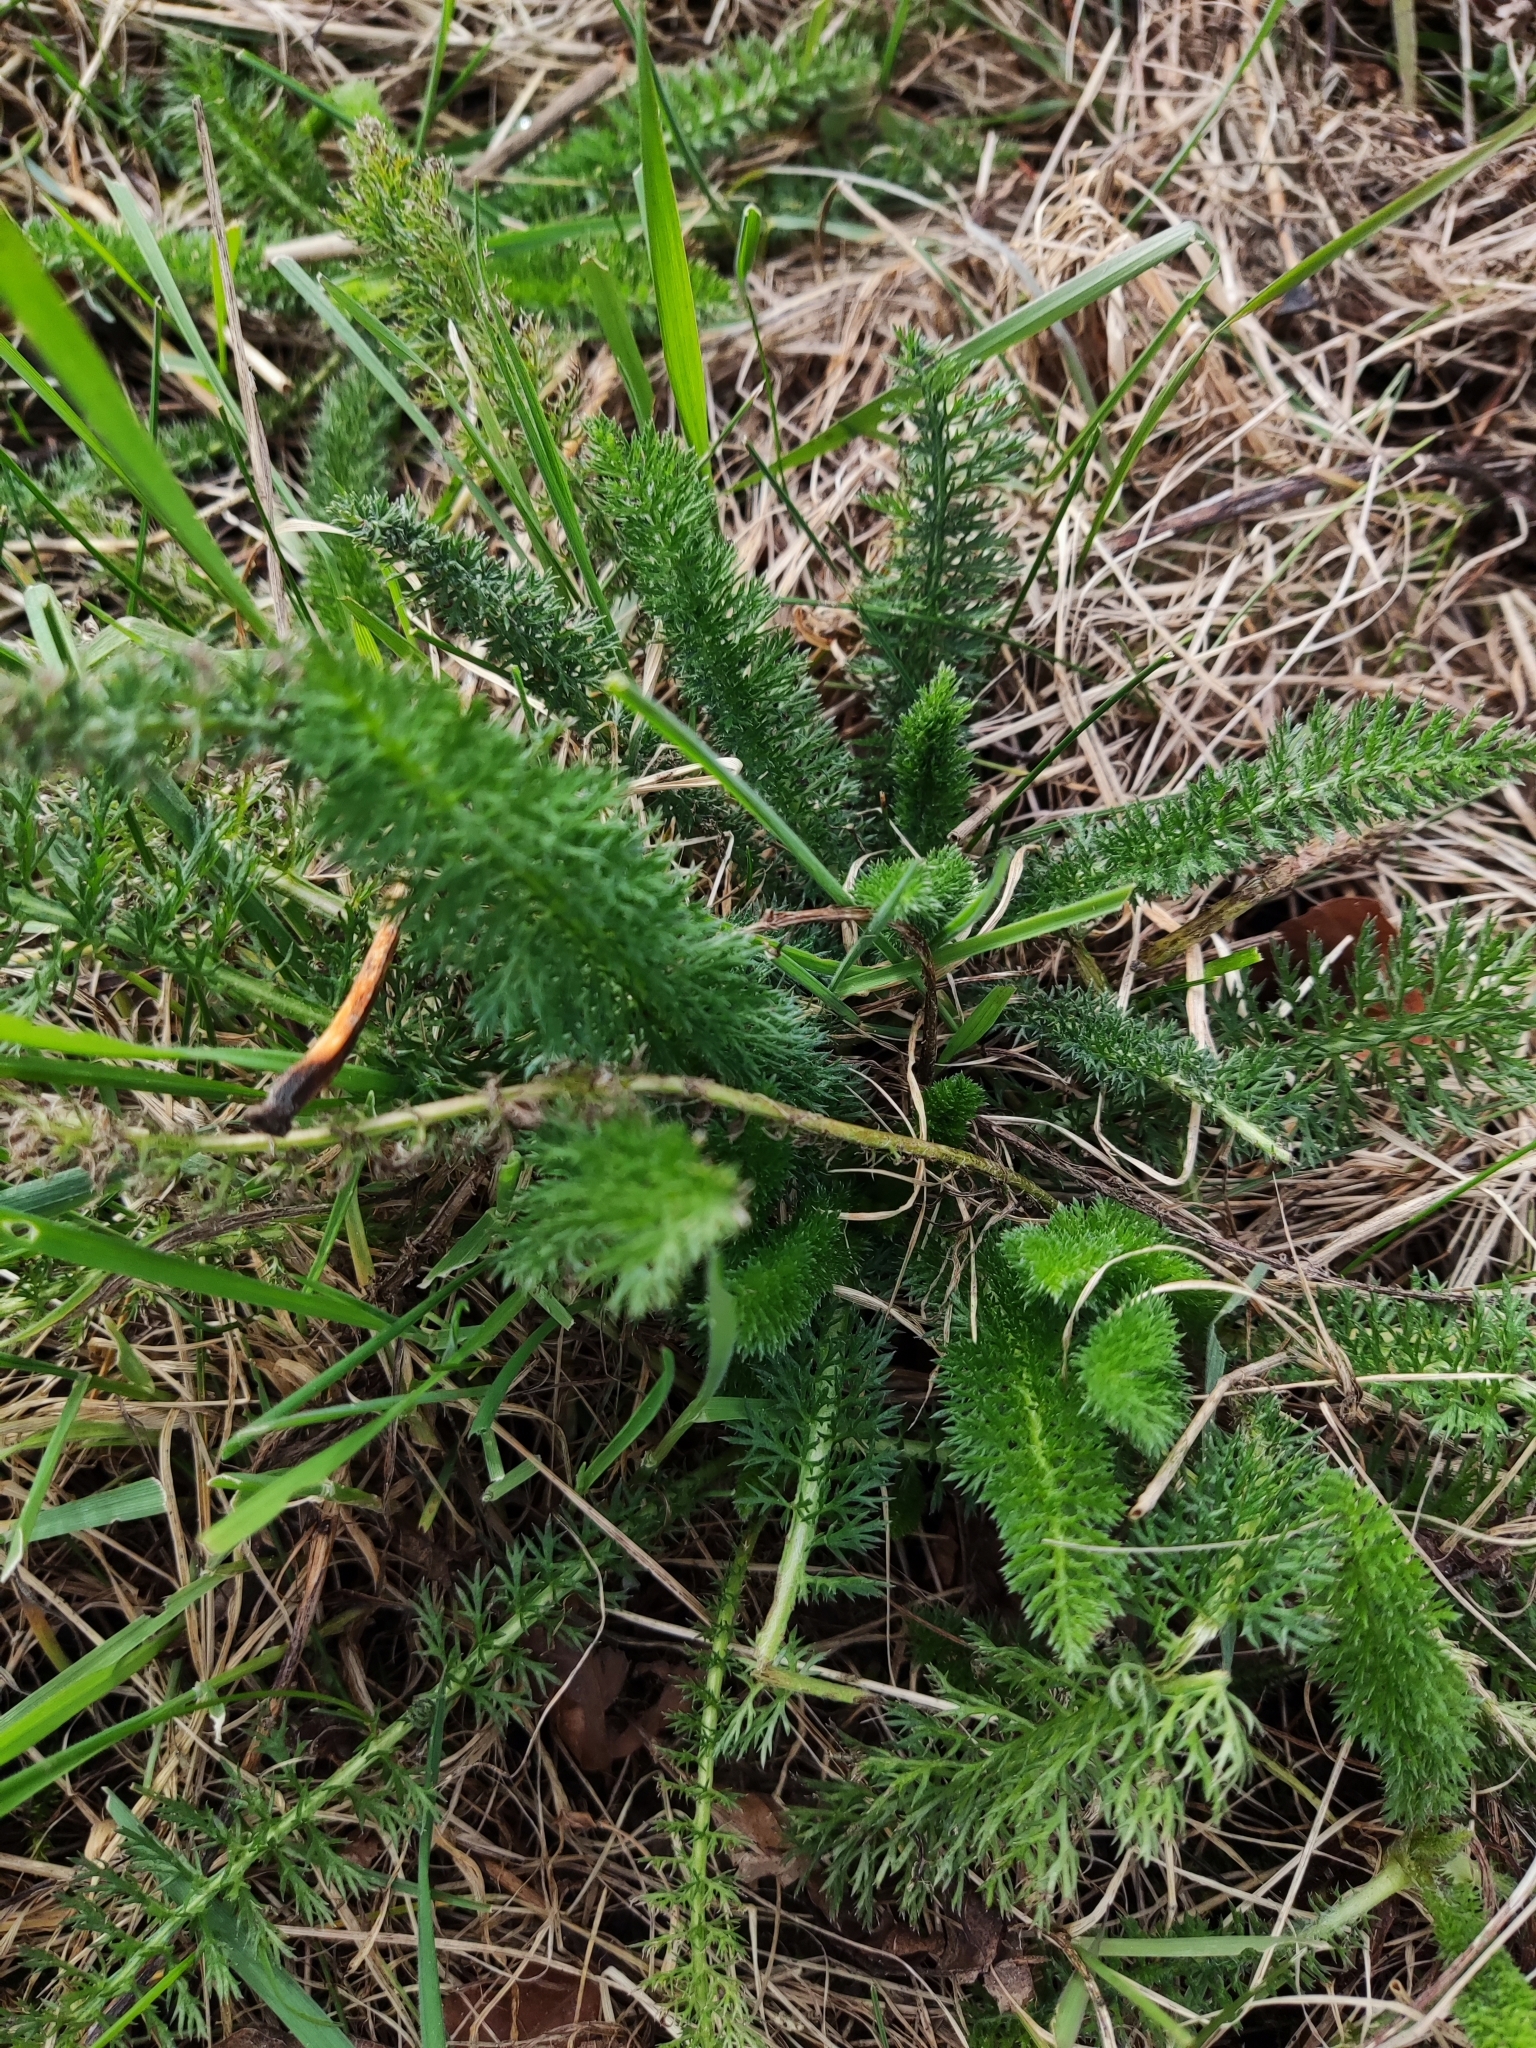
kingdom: Plantae
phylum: Tracheophyta
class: Magnoliopsida
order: Asterales
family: Asteraceae
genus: Achillea
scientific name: Achillea millefolium
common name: Yarrow
